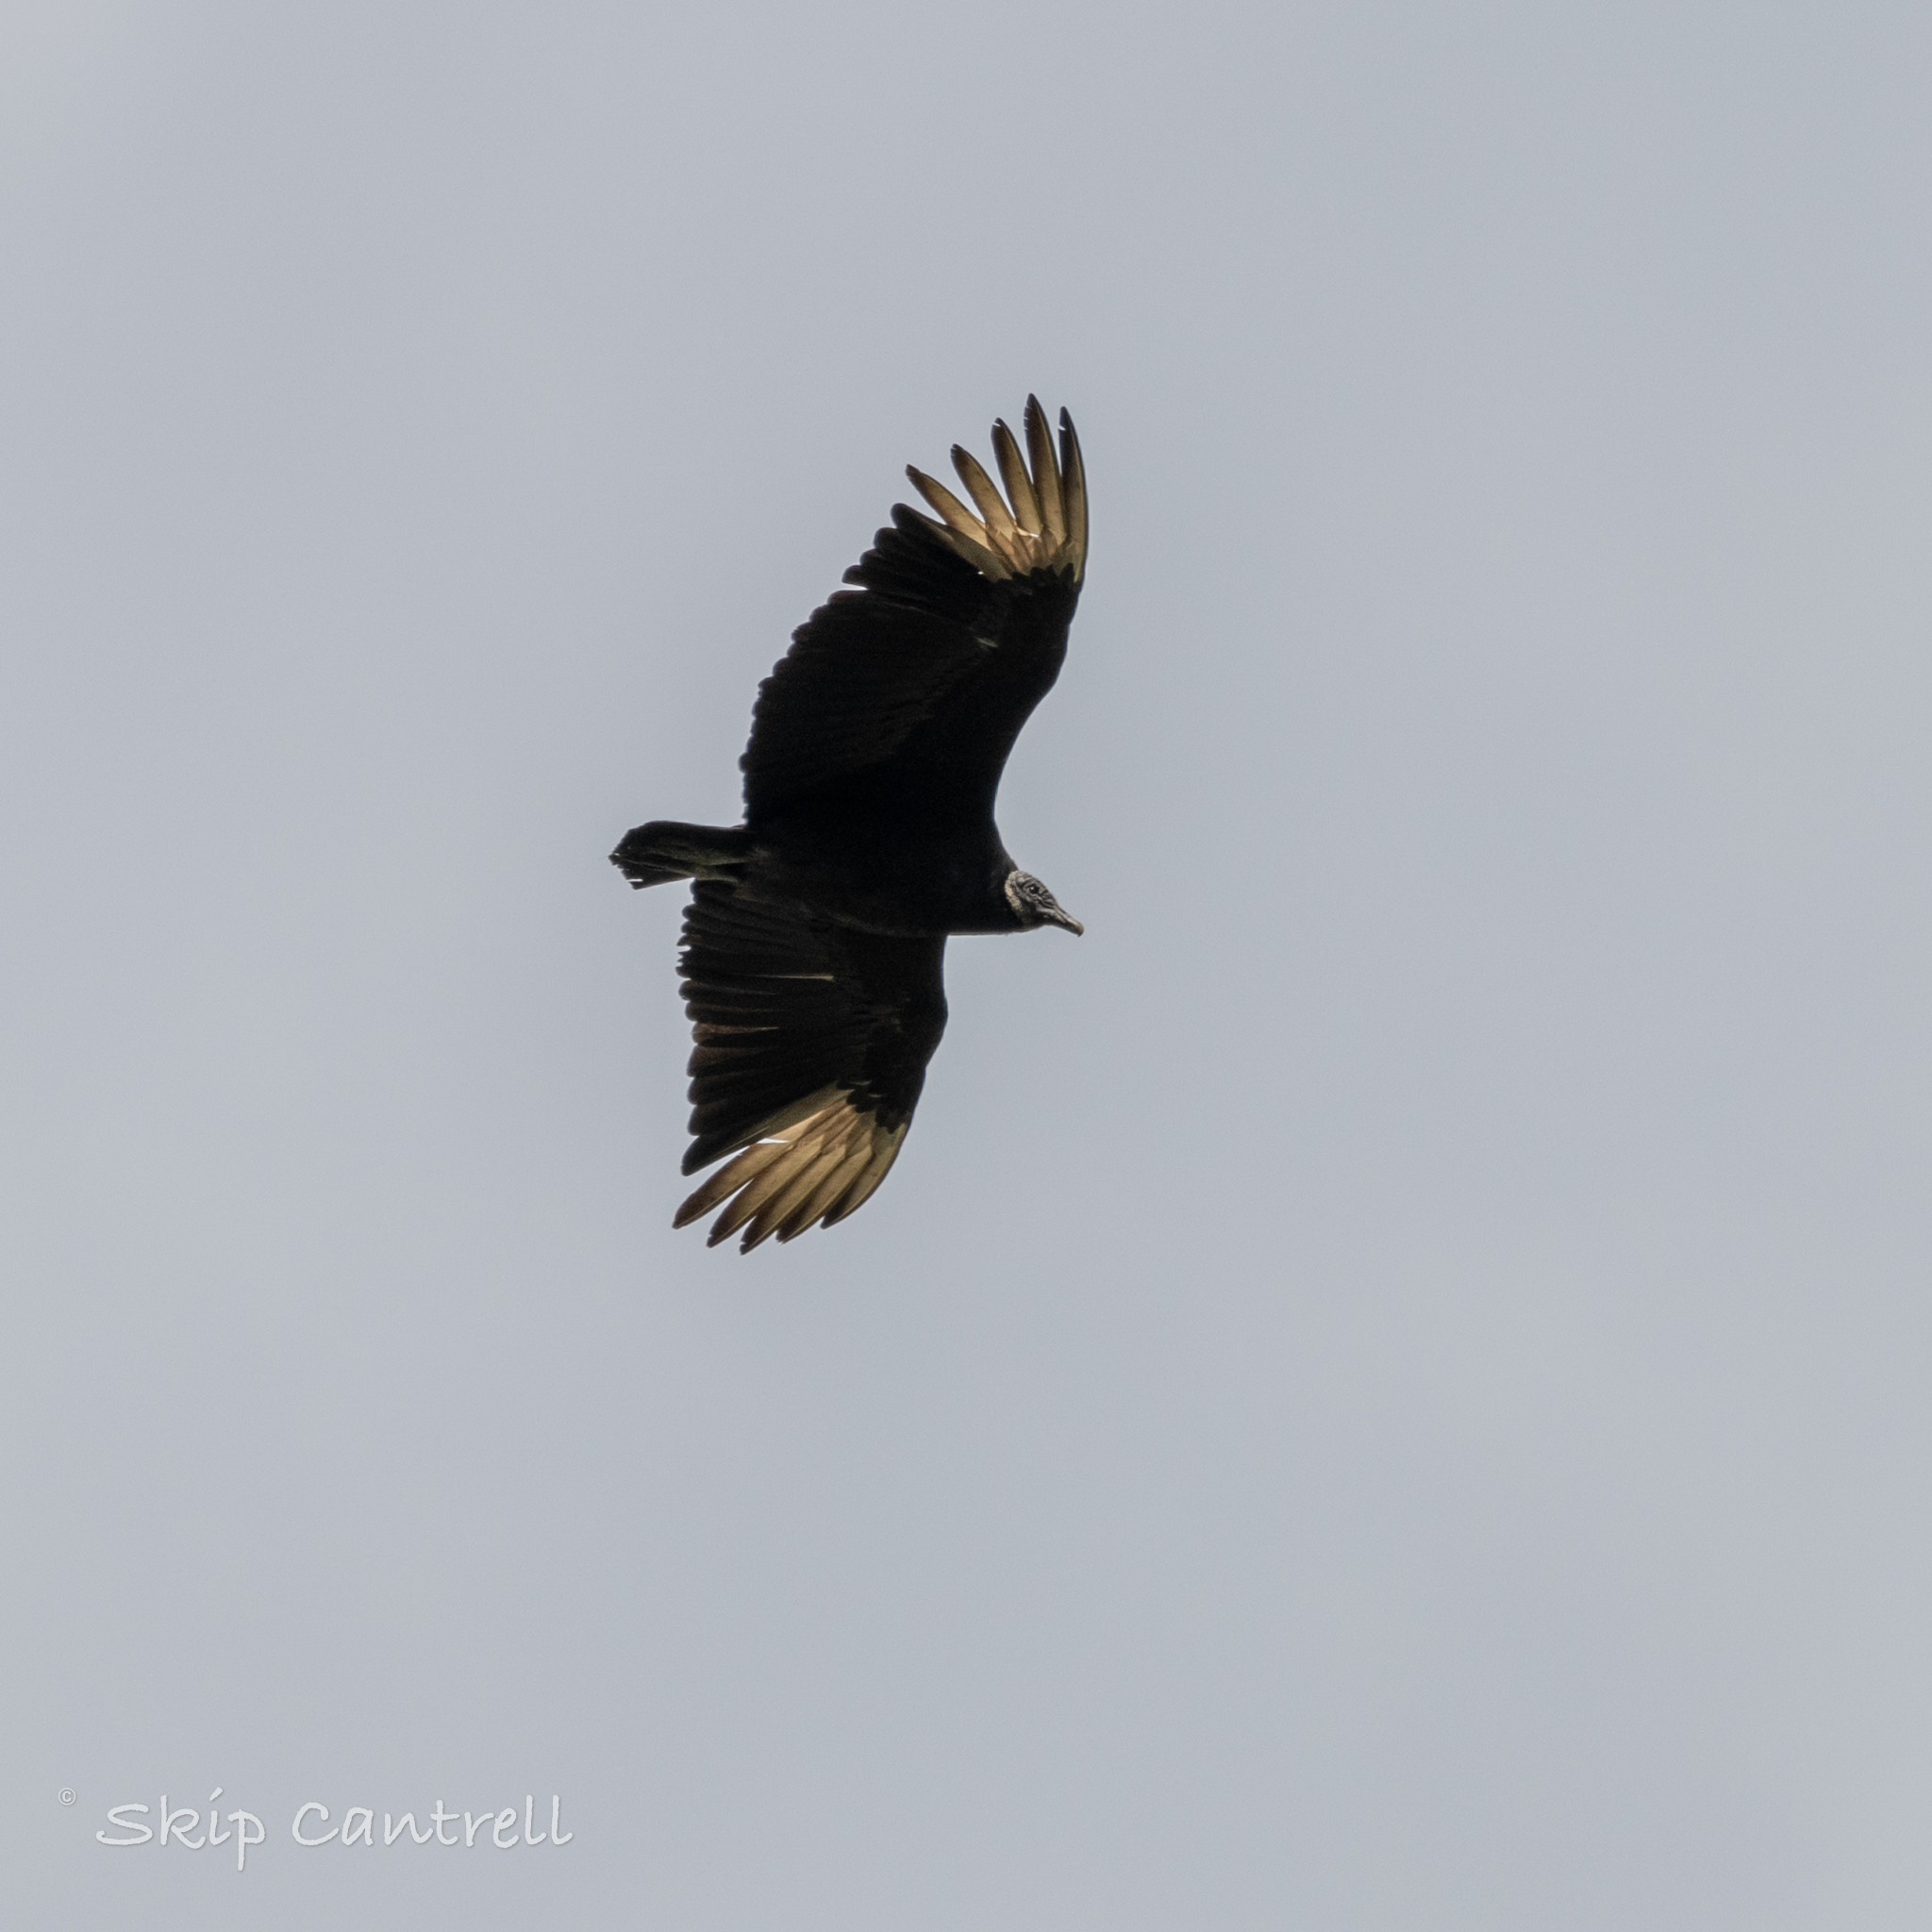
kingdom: Animalia
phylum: Chordata
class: Aves
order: Accipitriformes
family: Cathartidae
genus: Coragyps
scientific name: Coragyps atratus
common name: Black vulture
